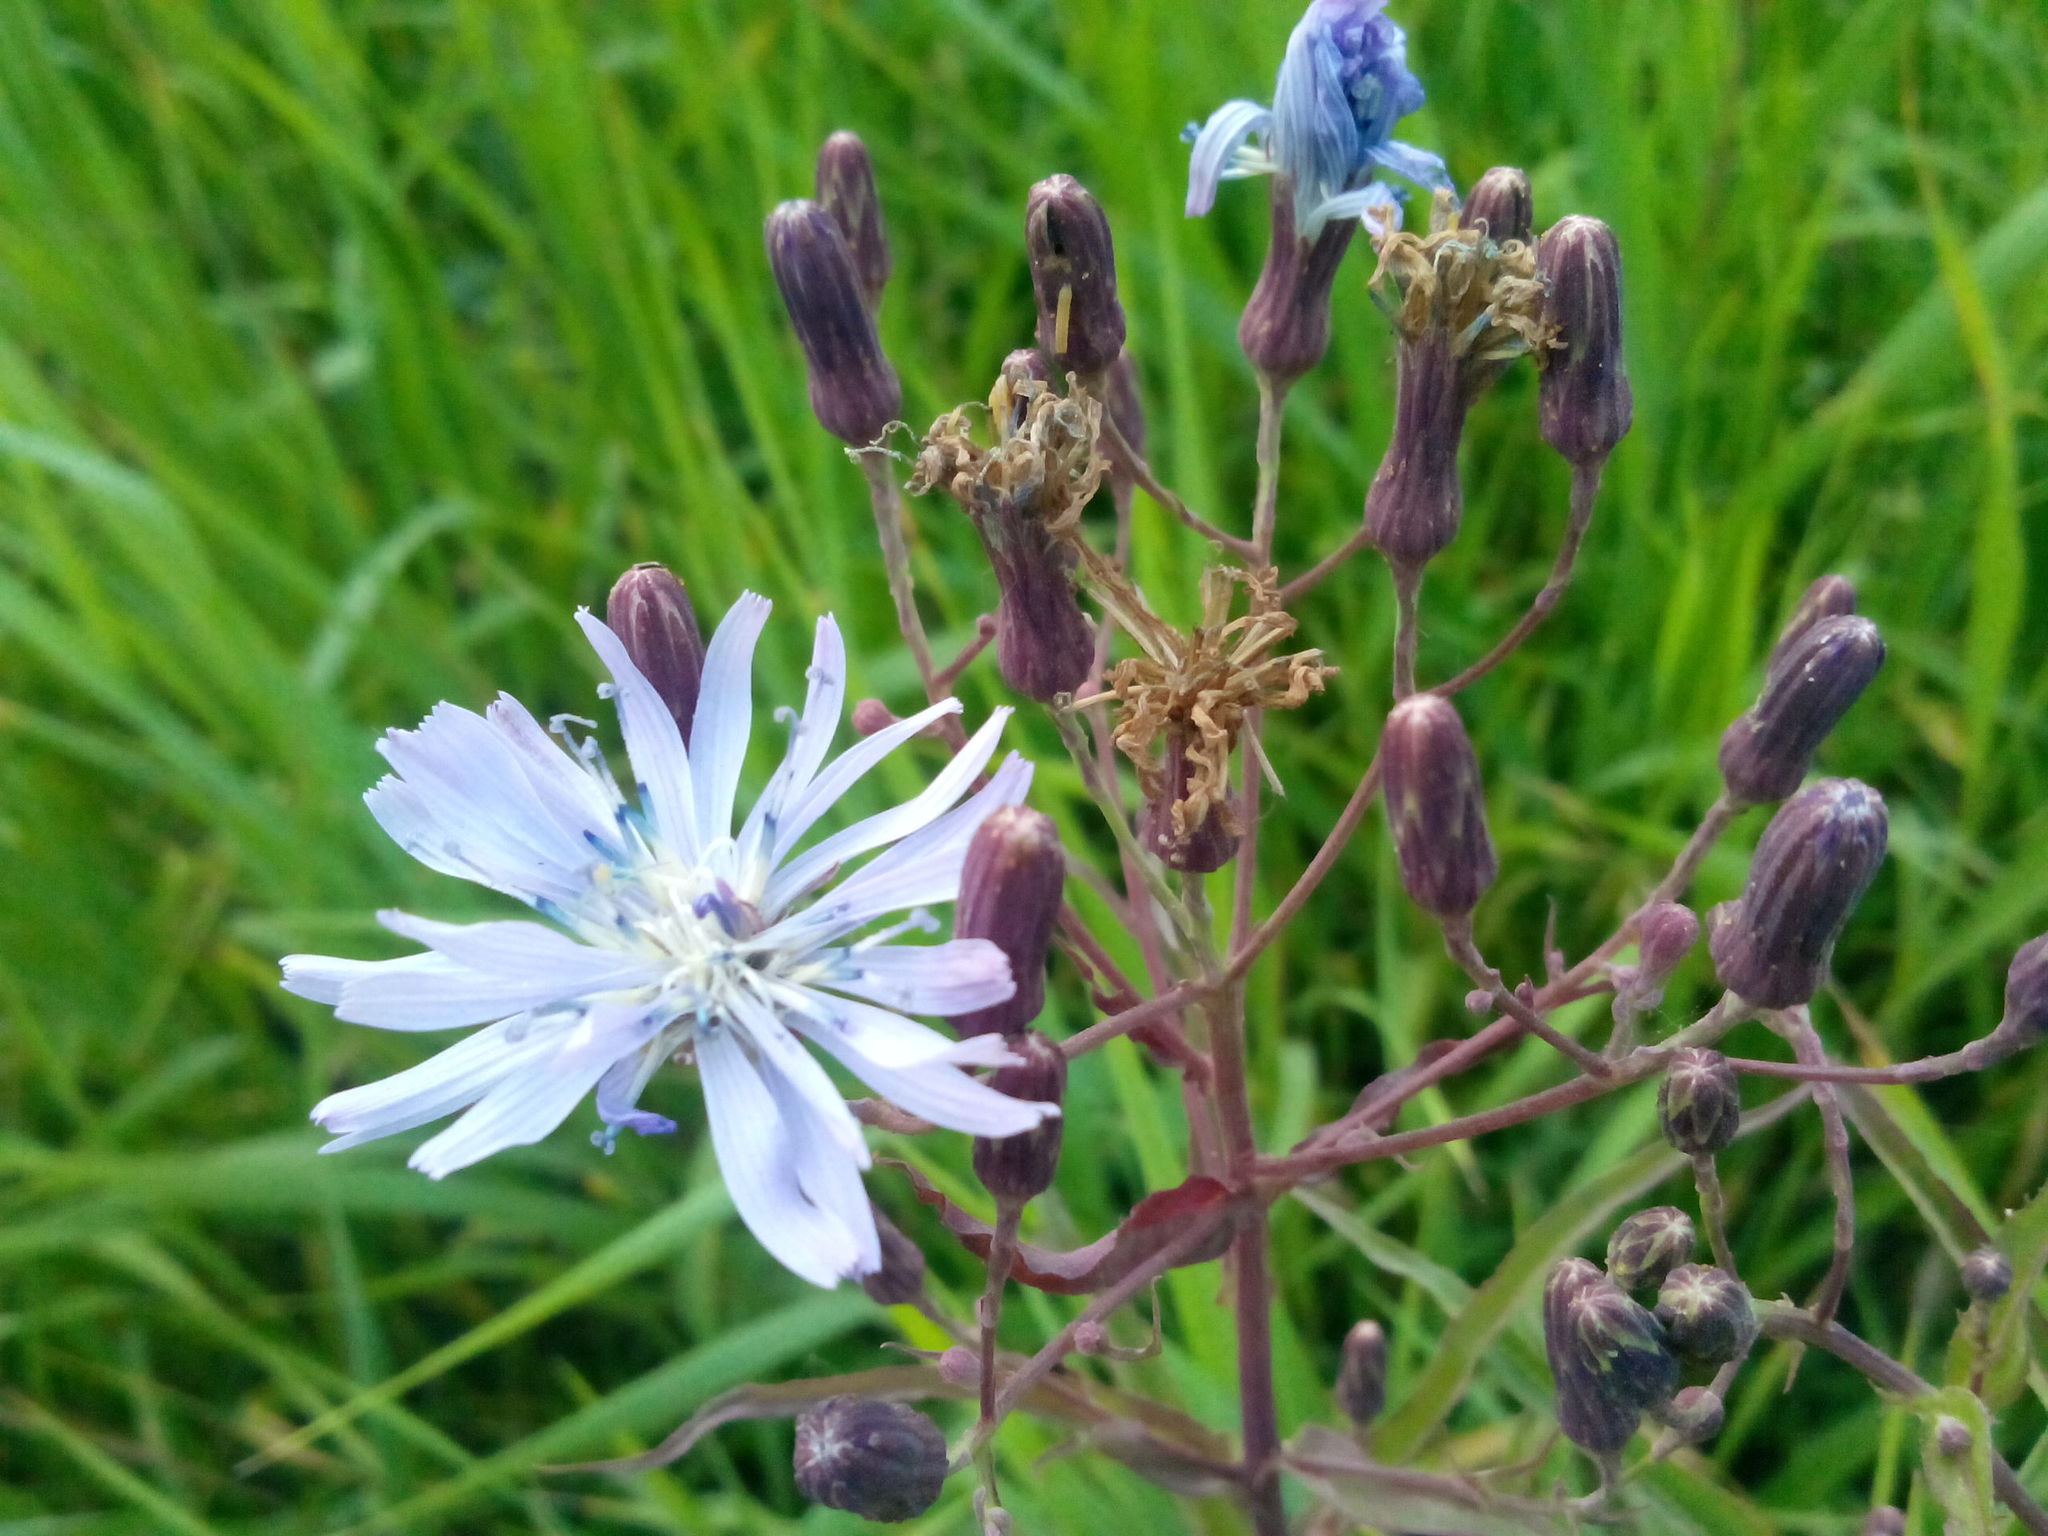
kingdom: Plantae
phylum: Tracheophyta
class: Magnoliopsida
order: Asterales
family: Asteraceae
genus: Lactuca
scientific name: Lactuca sibirica
